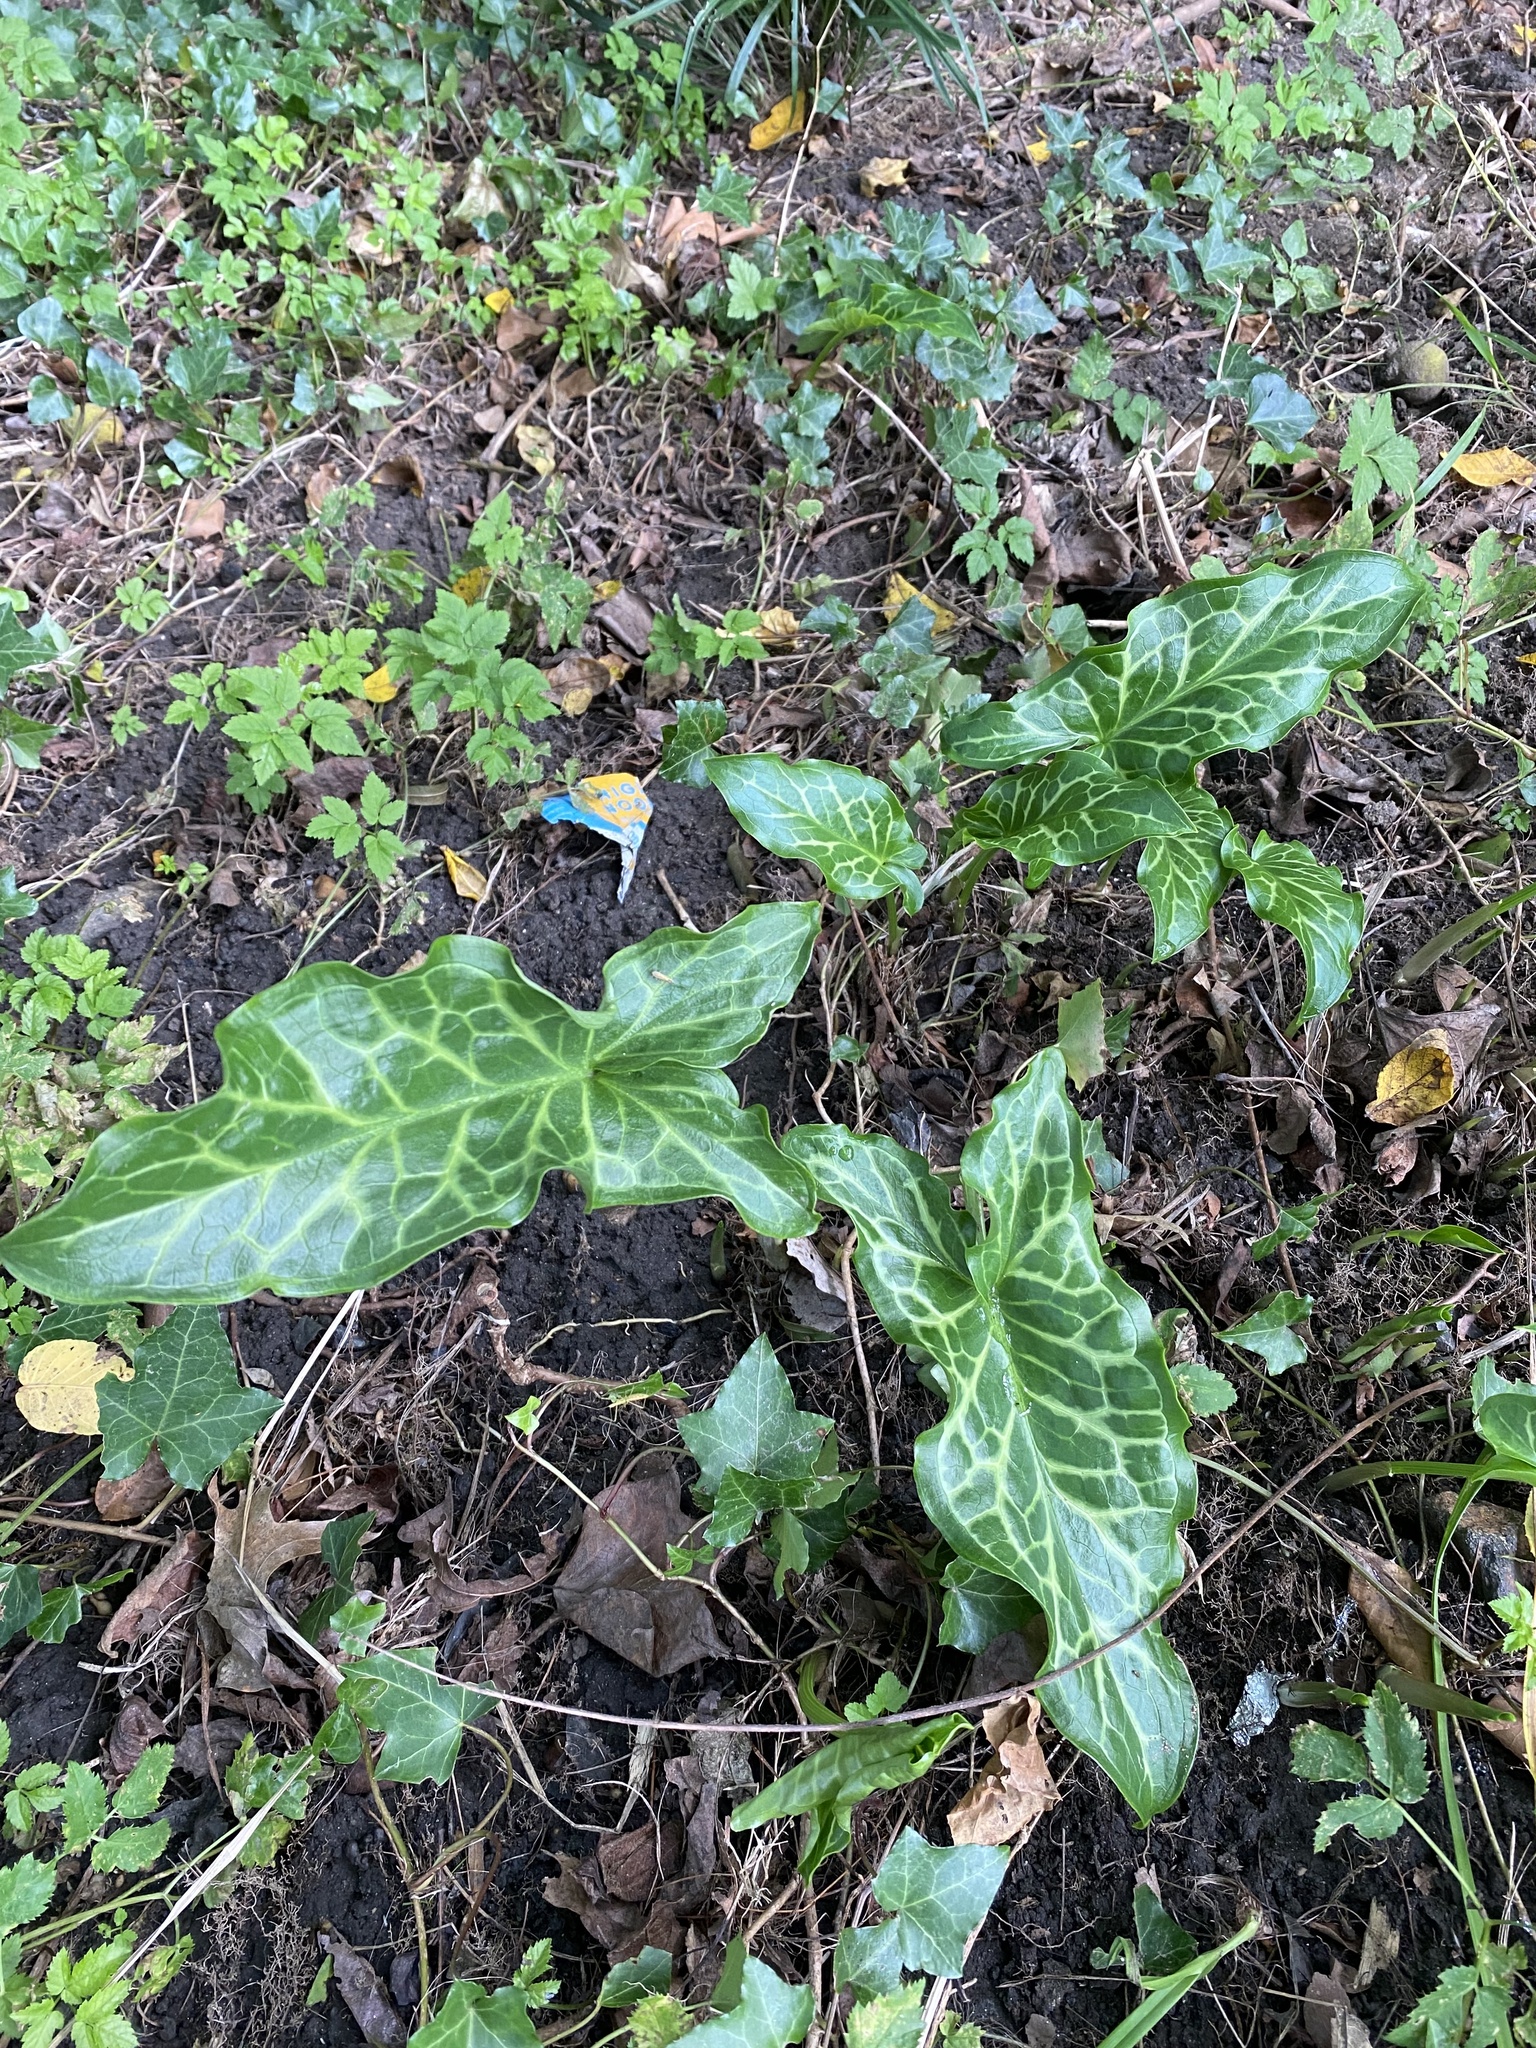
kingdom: Plantae
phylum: Tracheophyta
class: Liliopsida
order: Alismatales
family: Araceae
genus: Arum
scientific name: Arum italicum
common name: Italian lords-and-ladies
